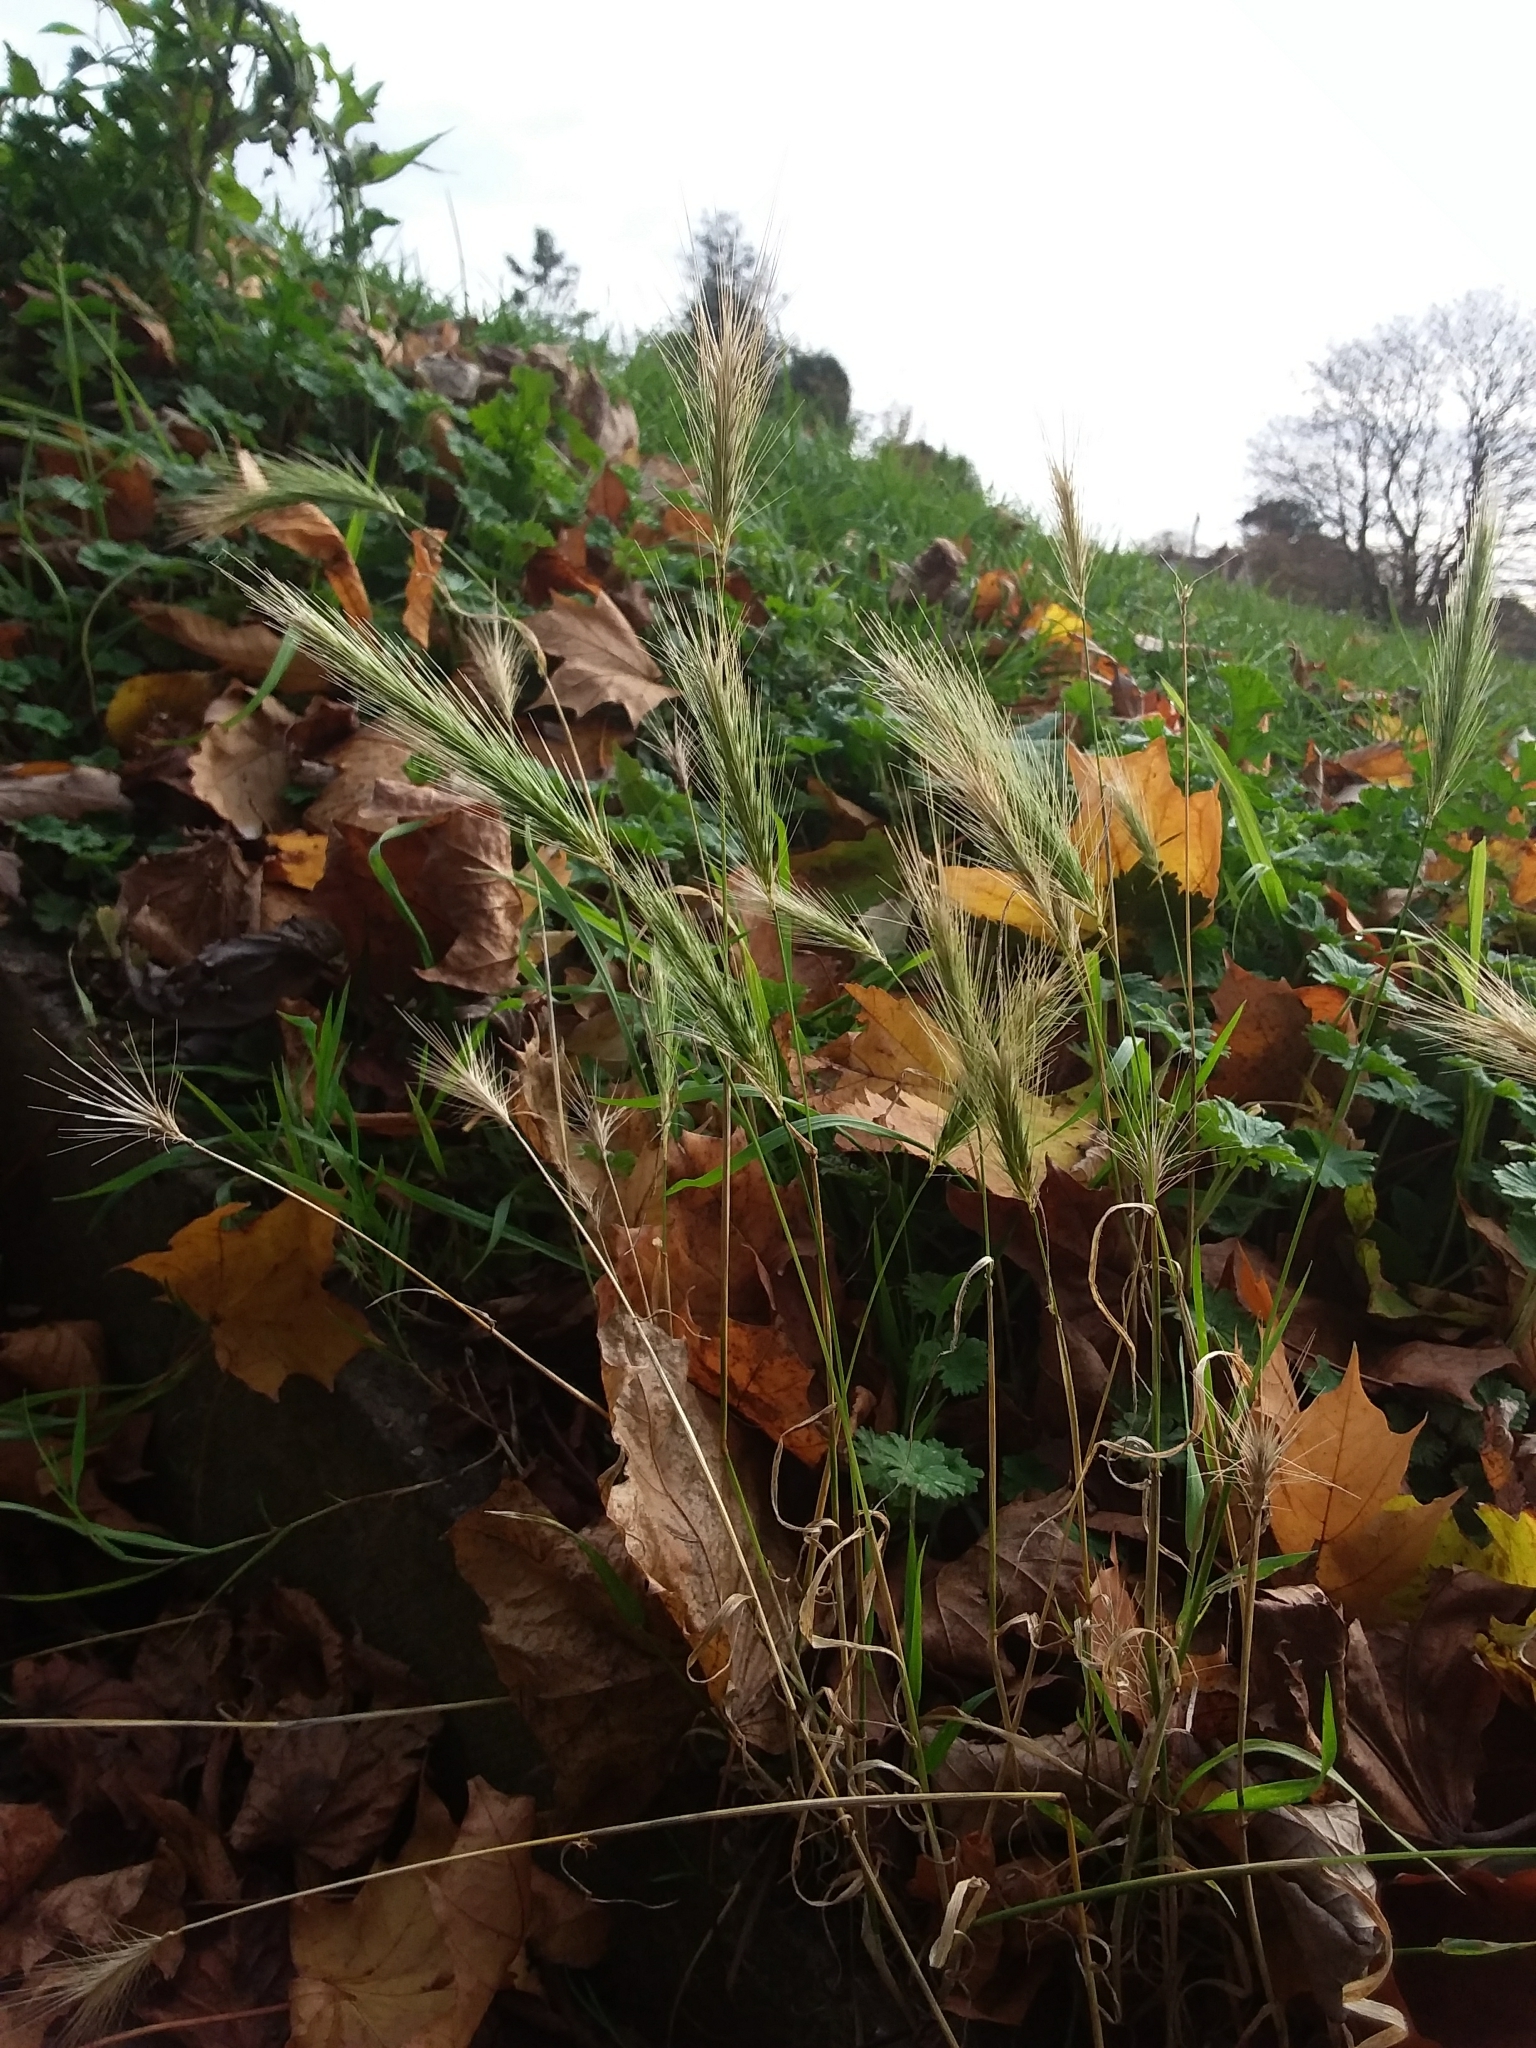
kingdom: Plantae
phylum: Tracheophyta
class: Liliopsida
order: Poales
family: Poaceae
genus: Hordeum
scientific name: Hordeum murinum
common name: Wall barley
